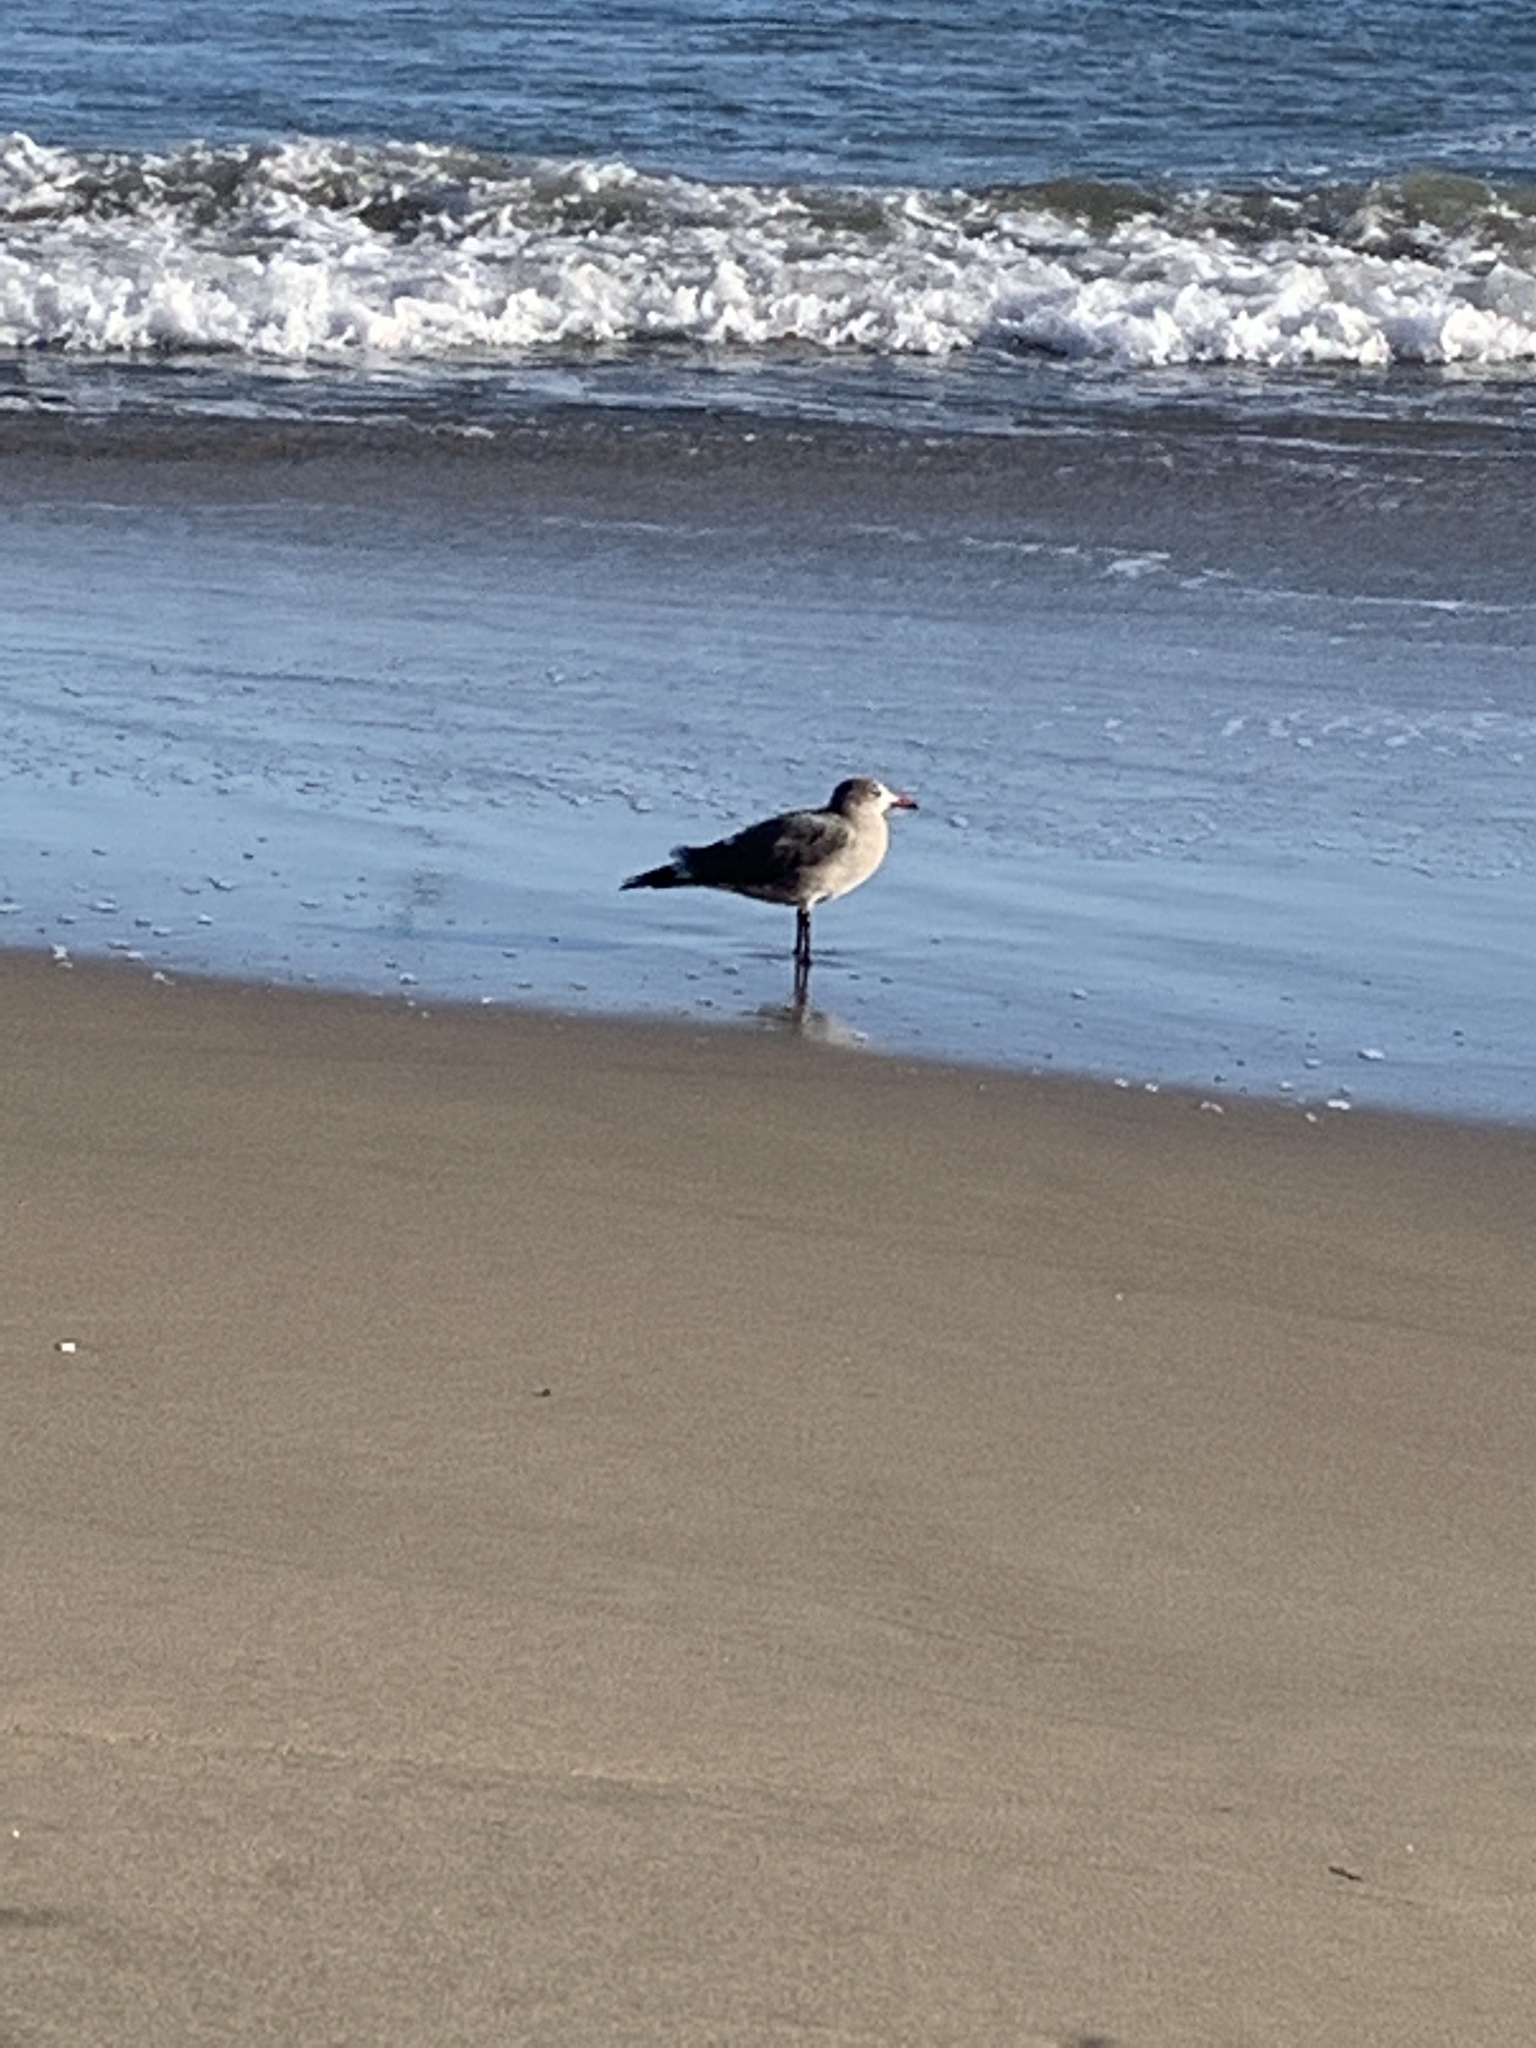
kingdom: Animalia
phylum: Chordata
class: Aves
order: Charadriiformes
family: Laridae
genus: Larus
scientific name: Larus heermanni
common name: Heermann's gull
